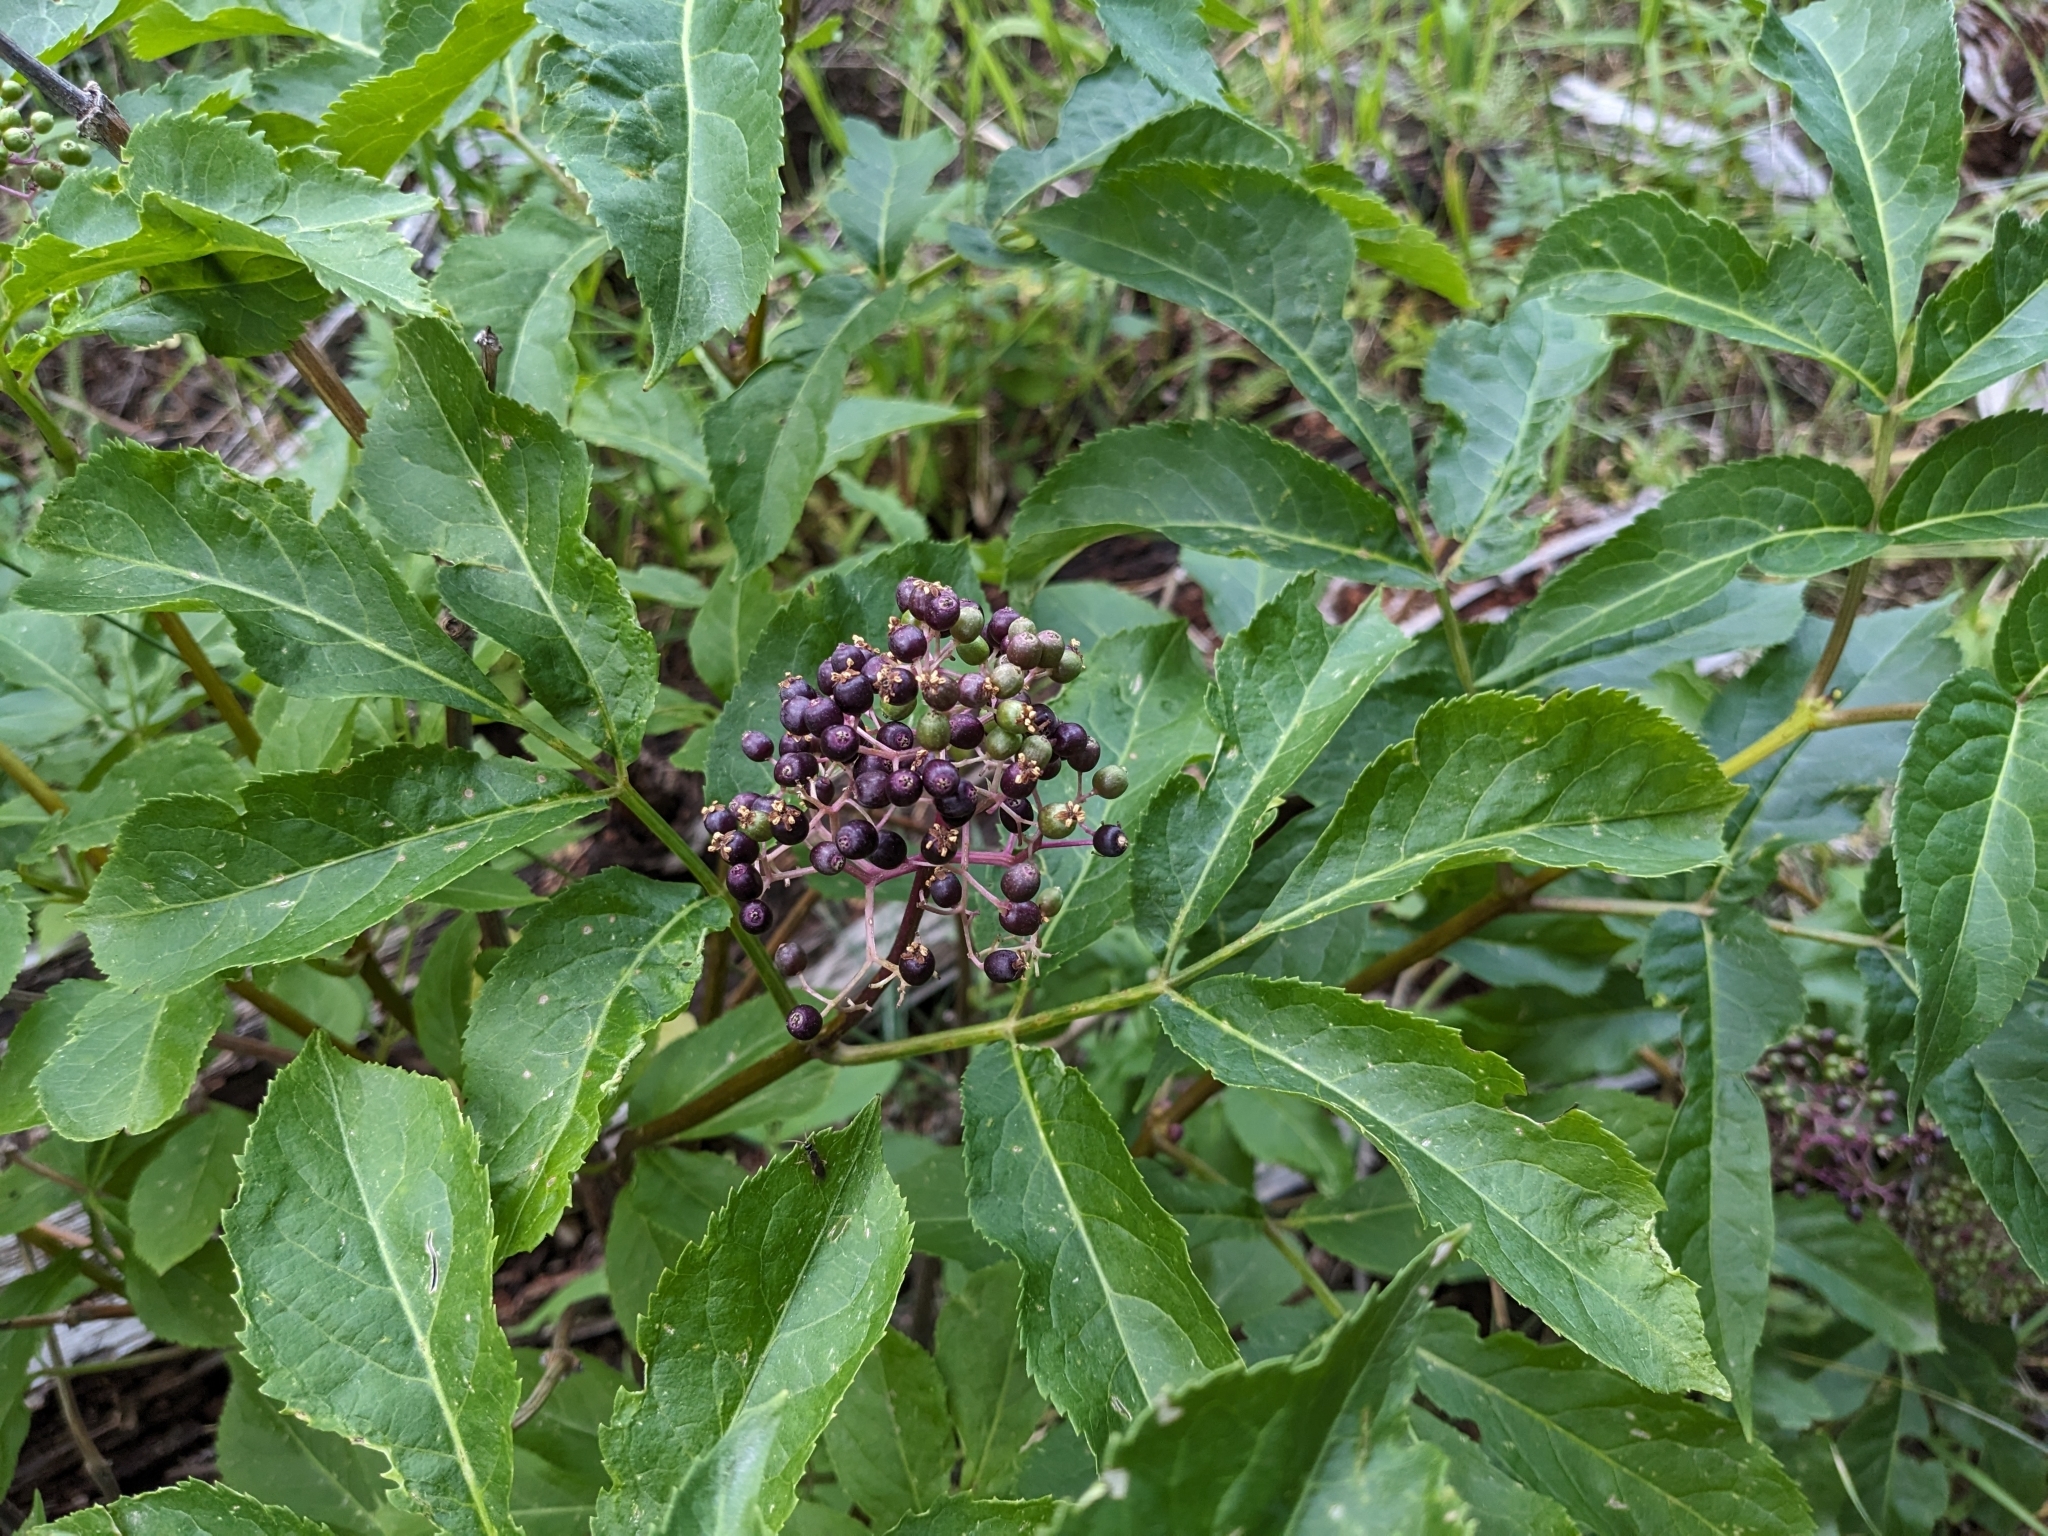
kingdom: Plantae
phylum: Tracheophyta
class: Magnoliopsida
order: Dipsacales
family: Viburnaceae
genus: Sambucus
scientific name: Sambucus racemosa
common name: Red-berried elder
